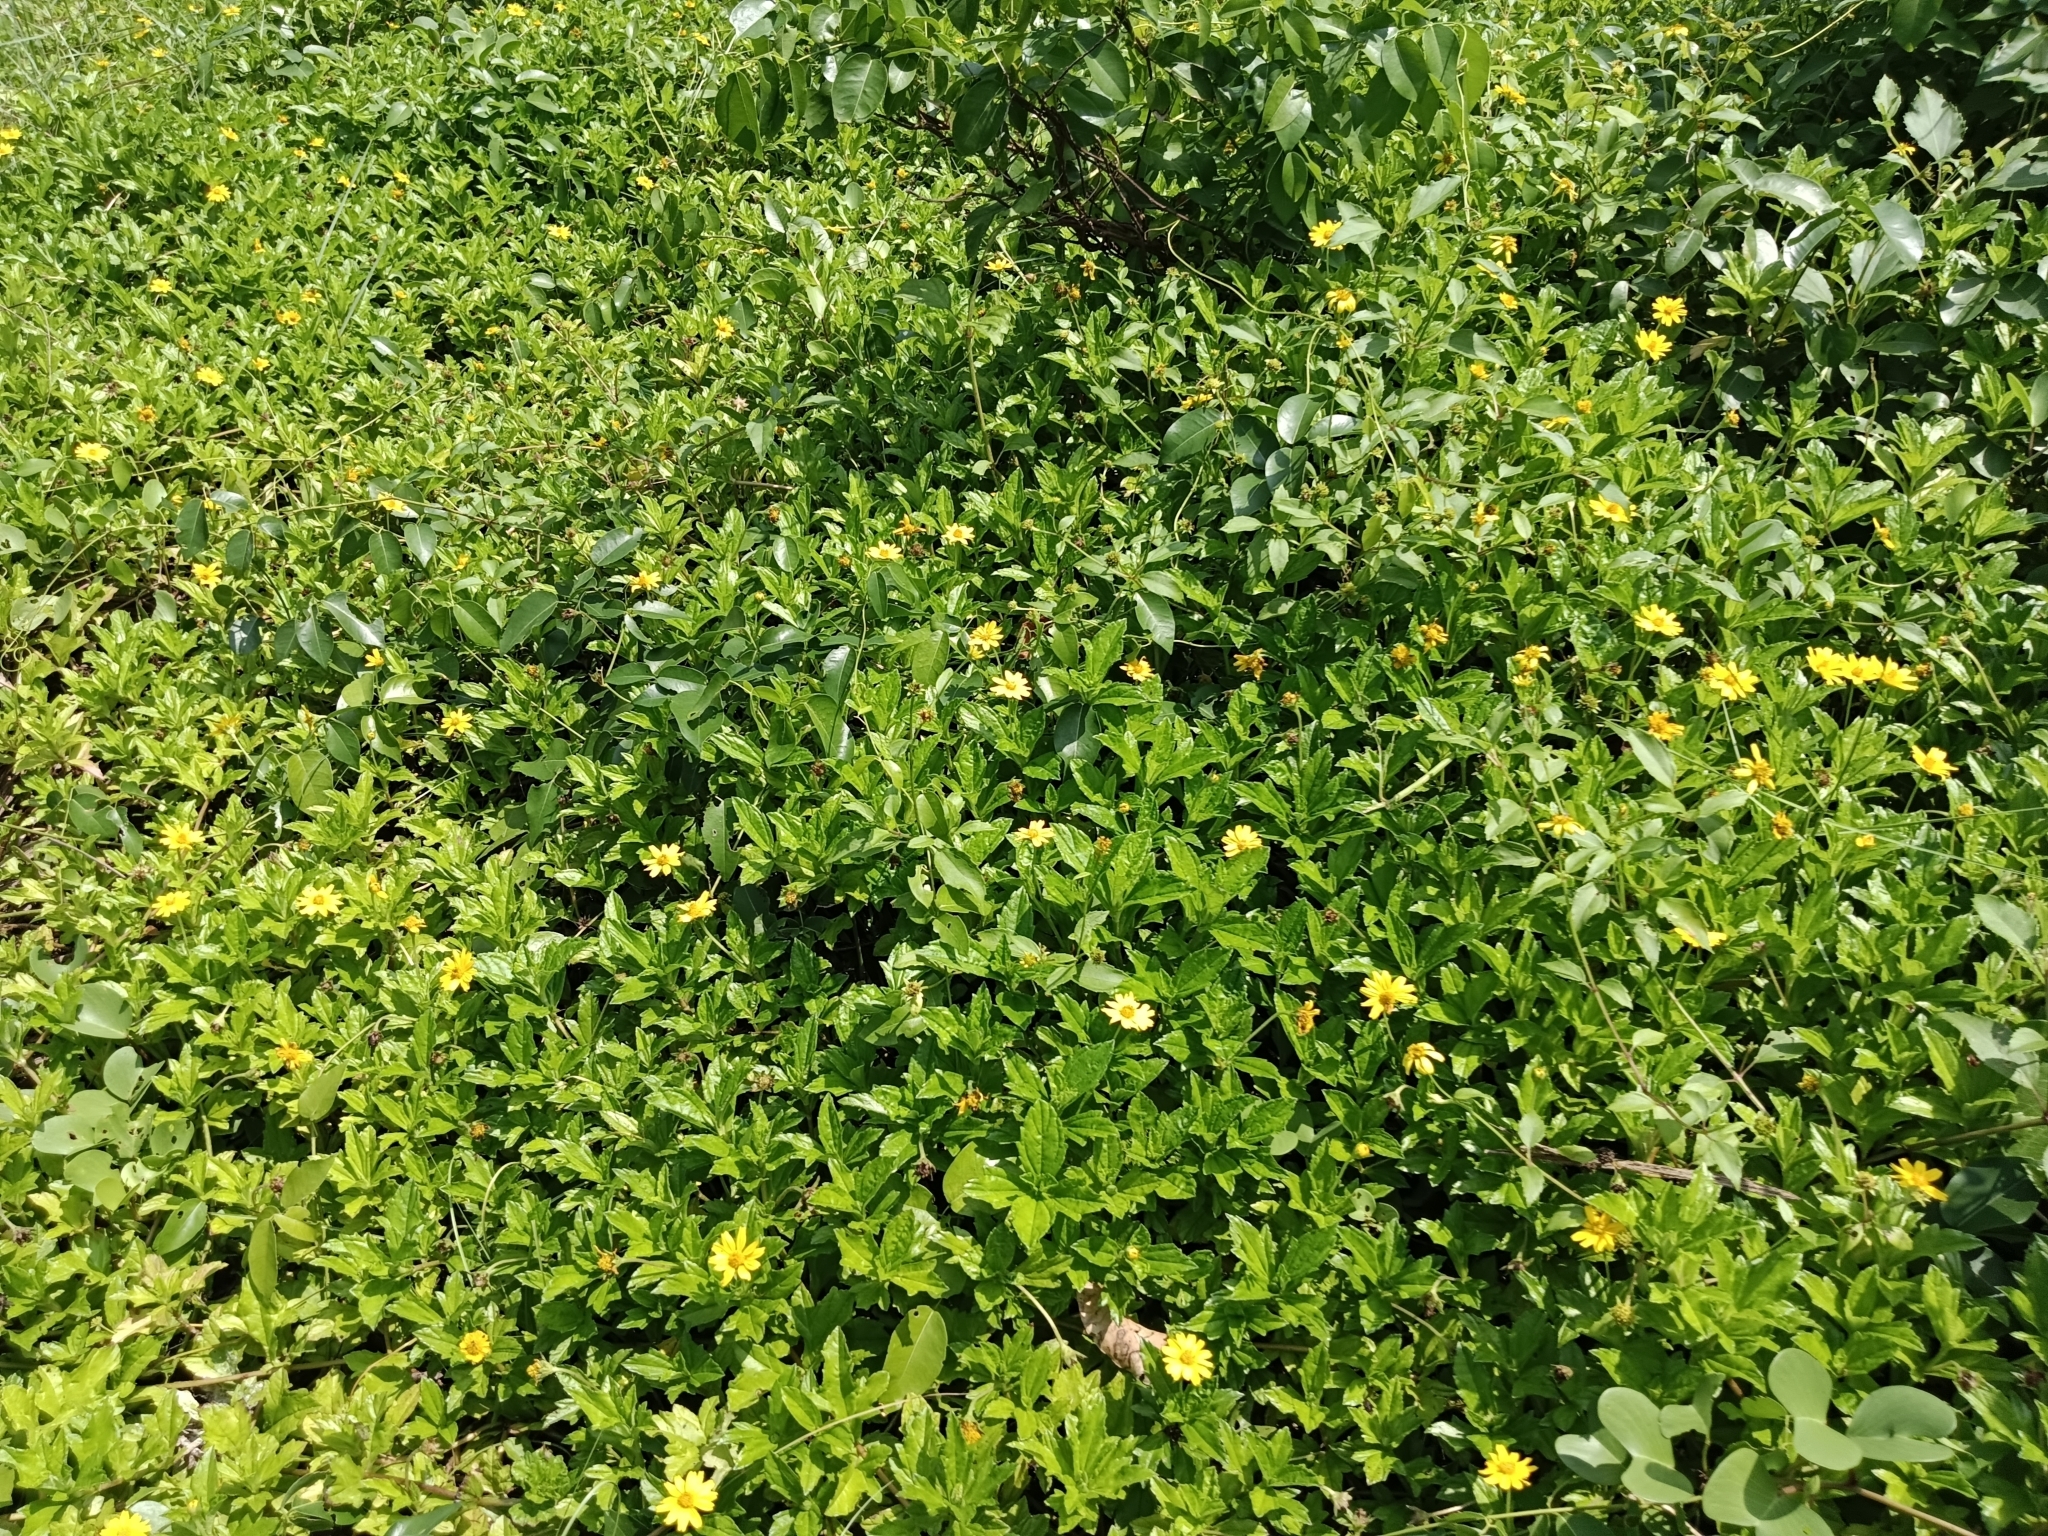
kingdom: Plantae
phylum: Tracheophyta
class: Magnoliopsida
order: Asterales
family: Asteraceae
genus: Sphagneticola
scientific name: Sphagneticola trilobata
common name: Bay biscayne creeping-oxeye
